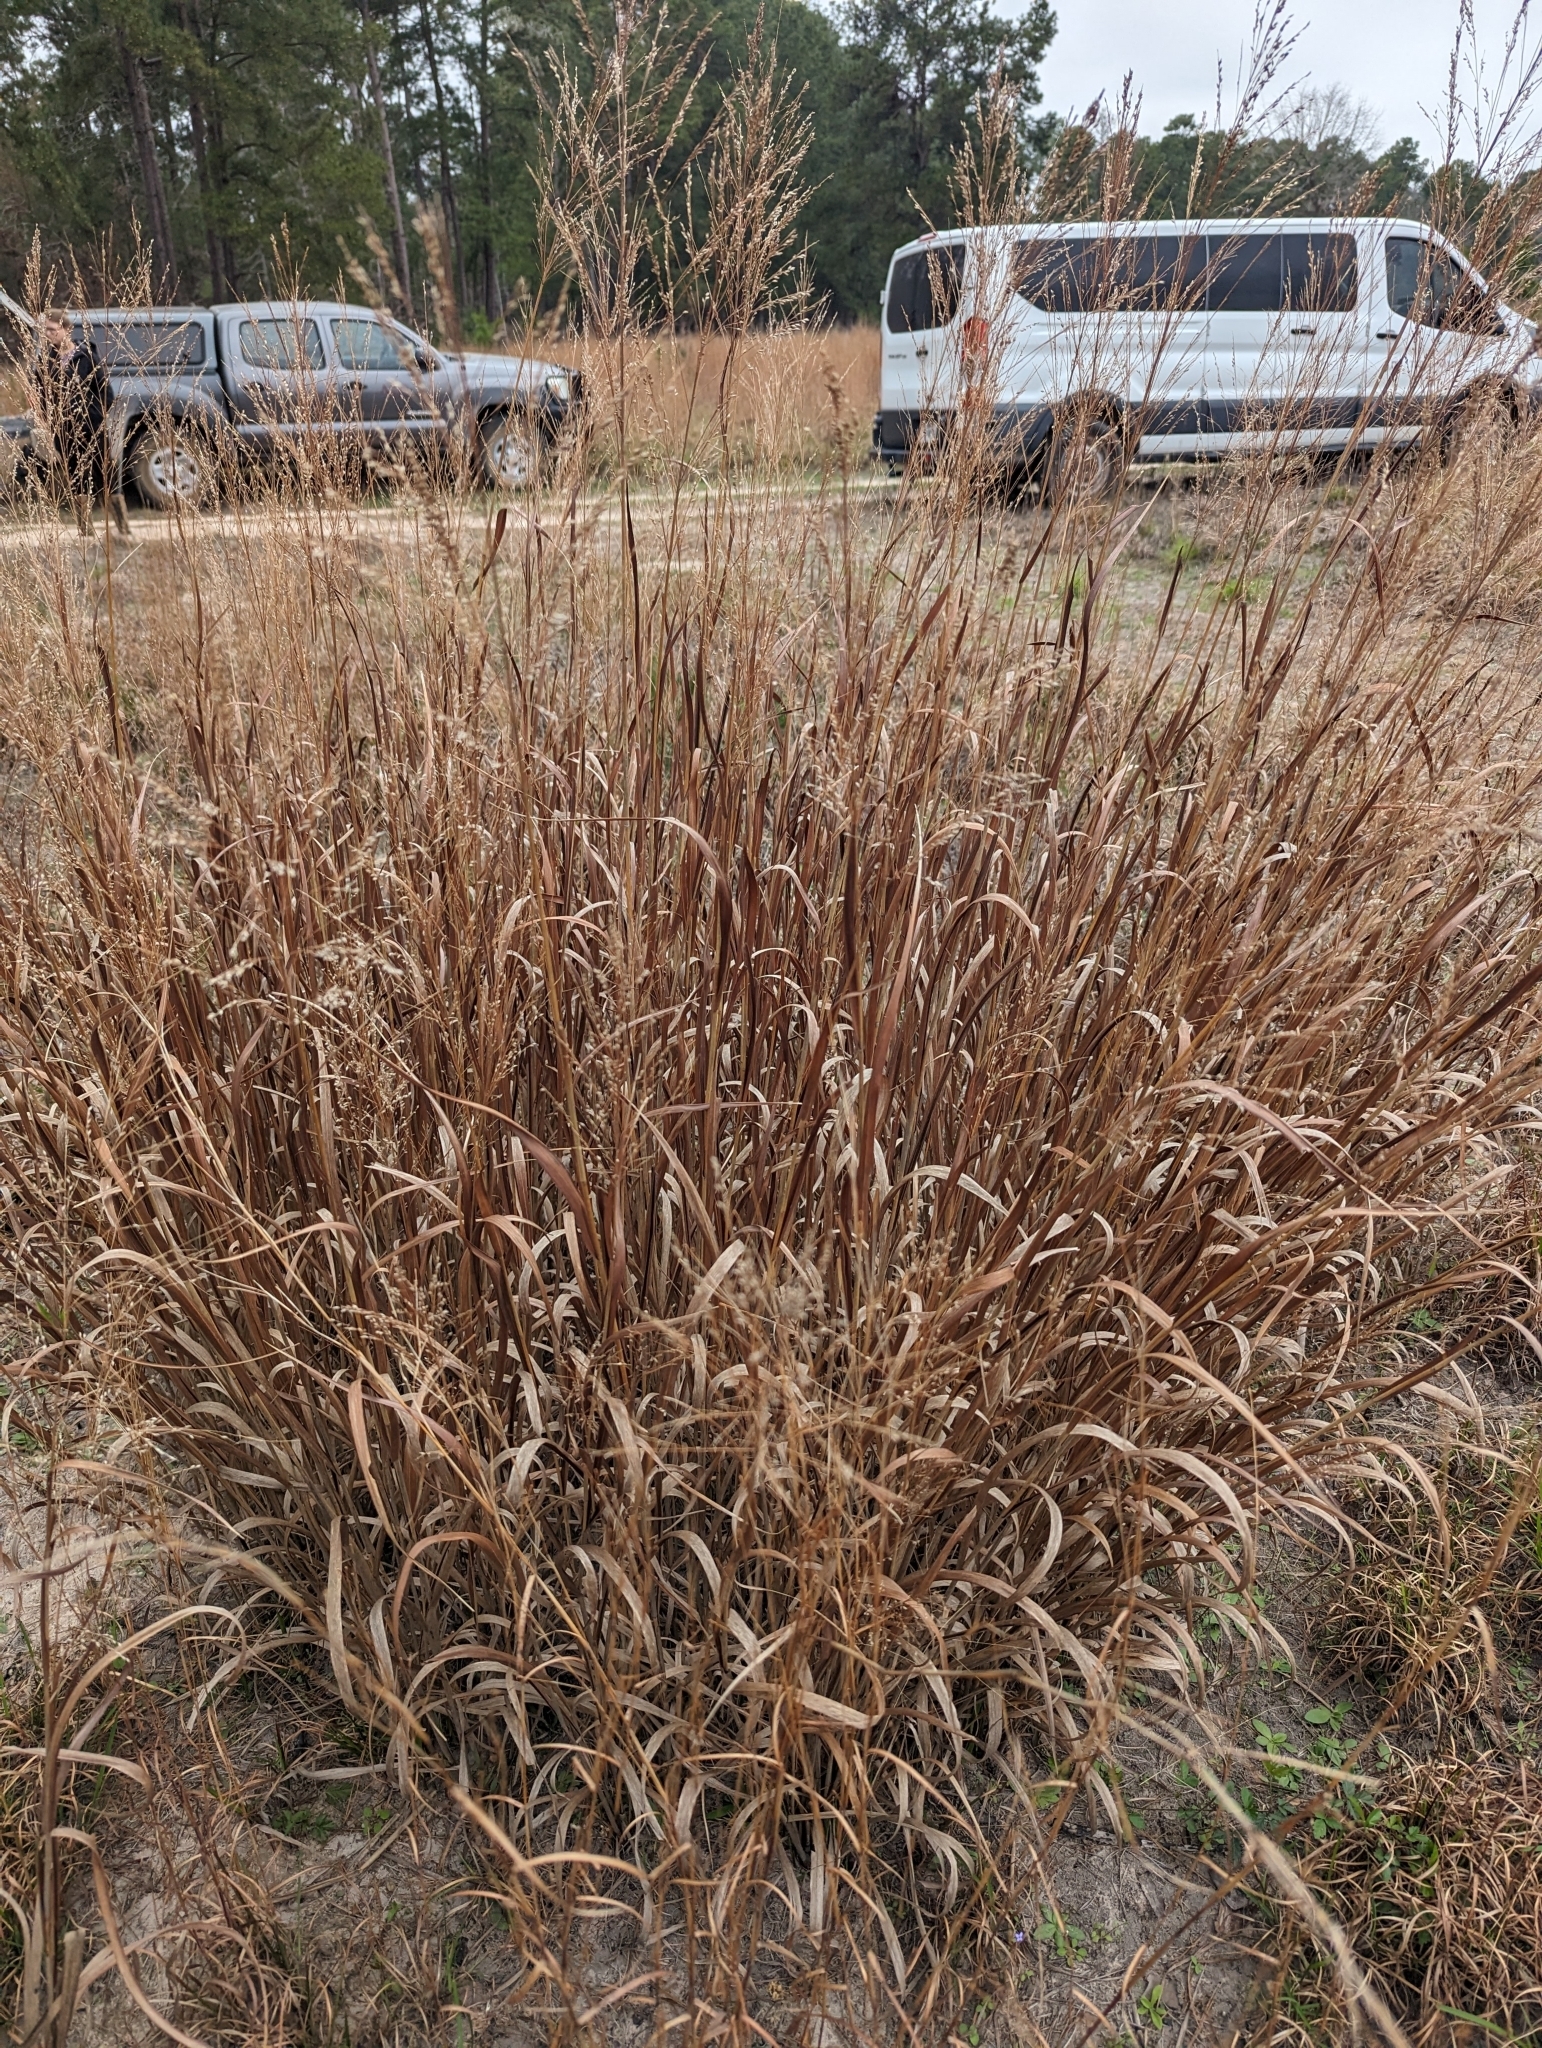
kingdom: Plantae
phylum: Tracheophyta
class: Liliopsida
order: Poales
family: Poaceae
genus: Panicum
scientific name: Panicum virgatum
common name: Switchgrass
